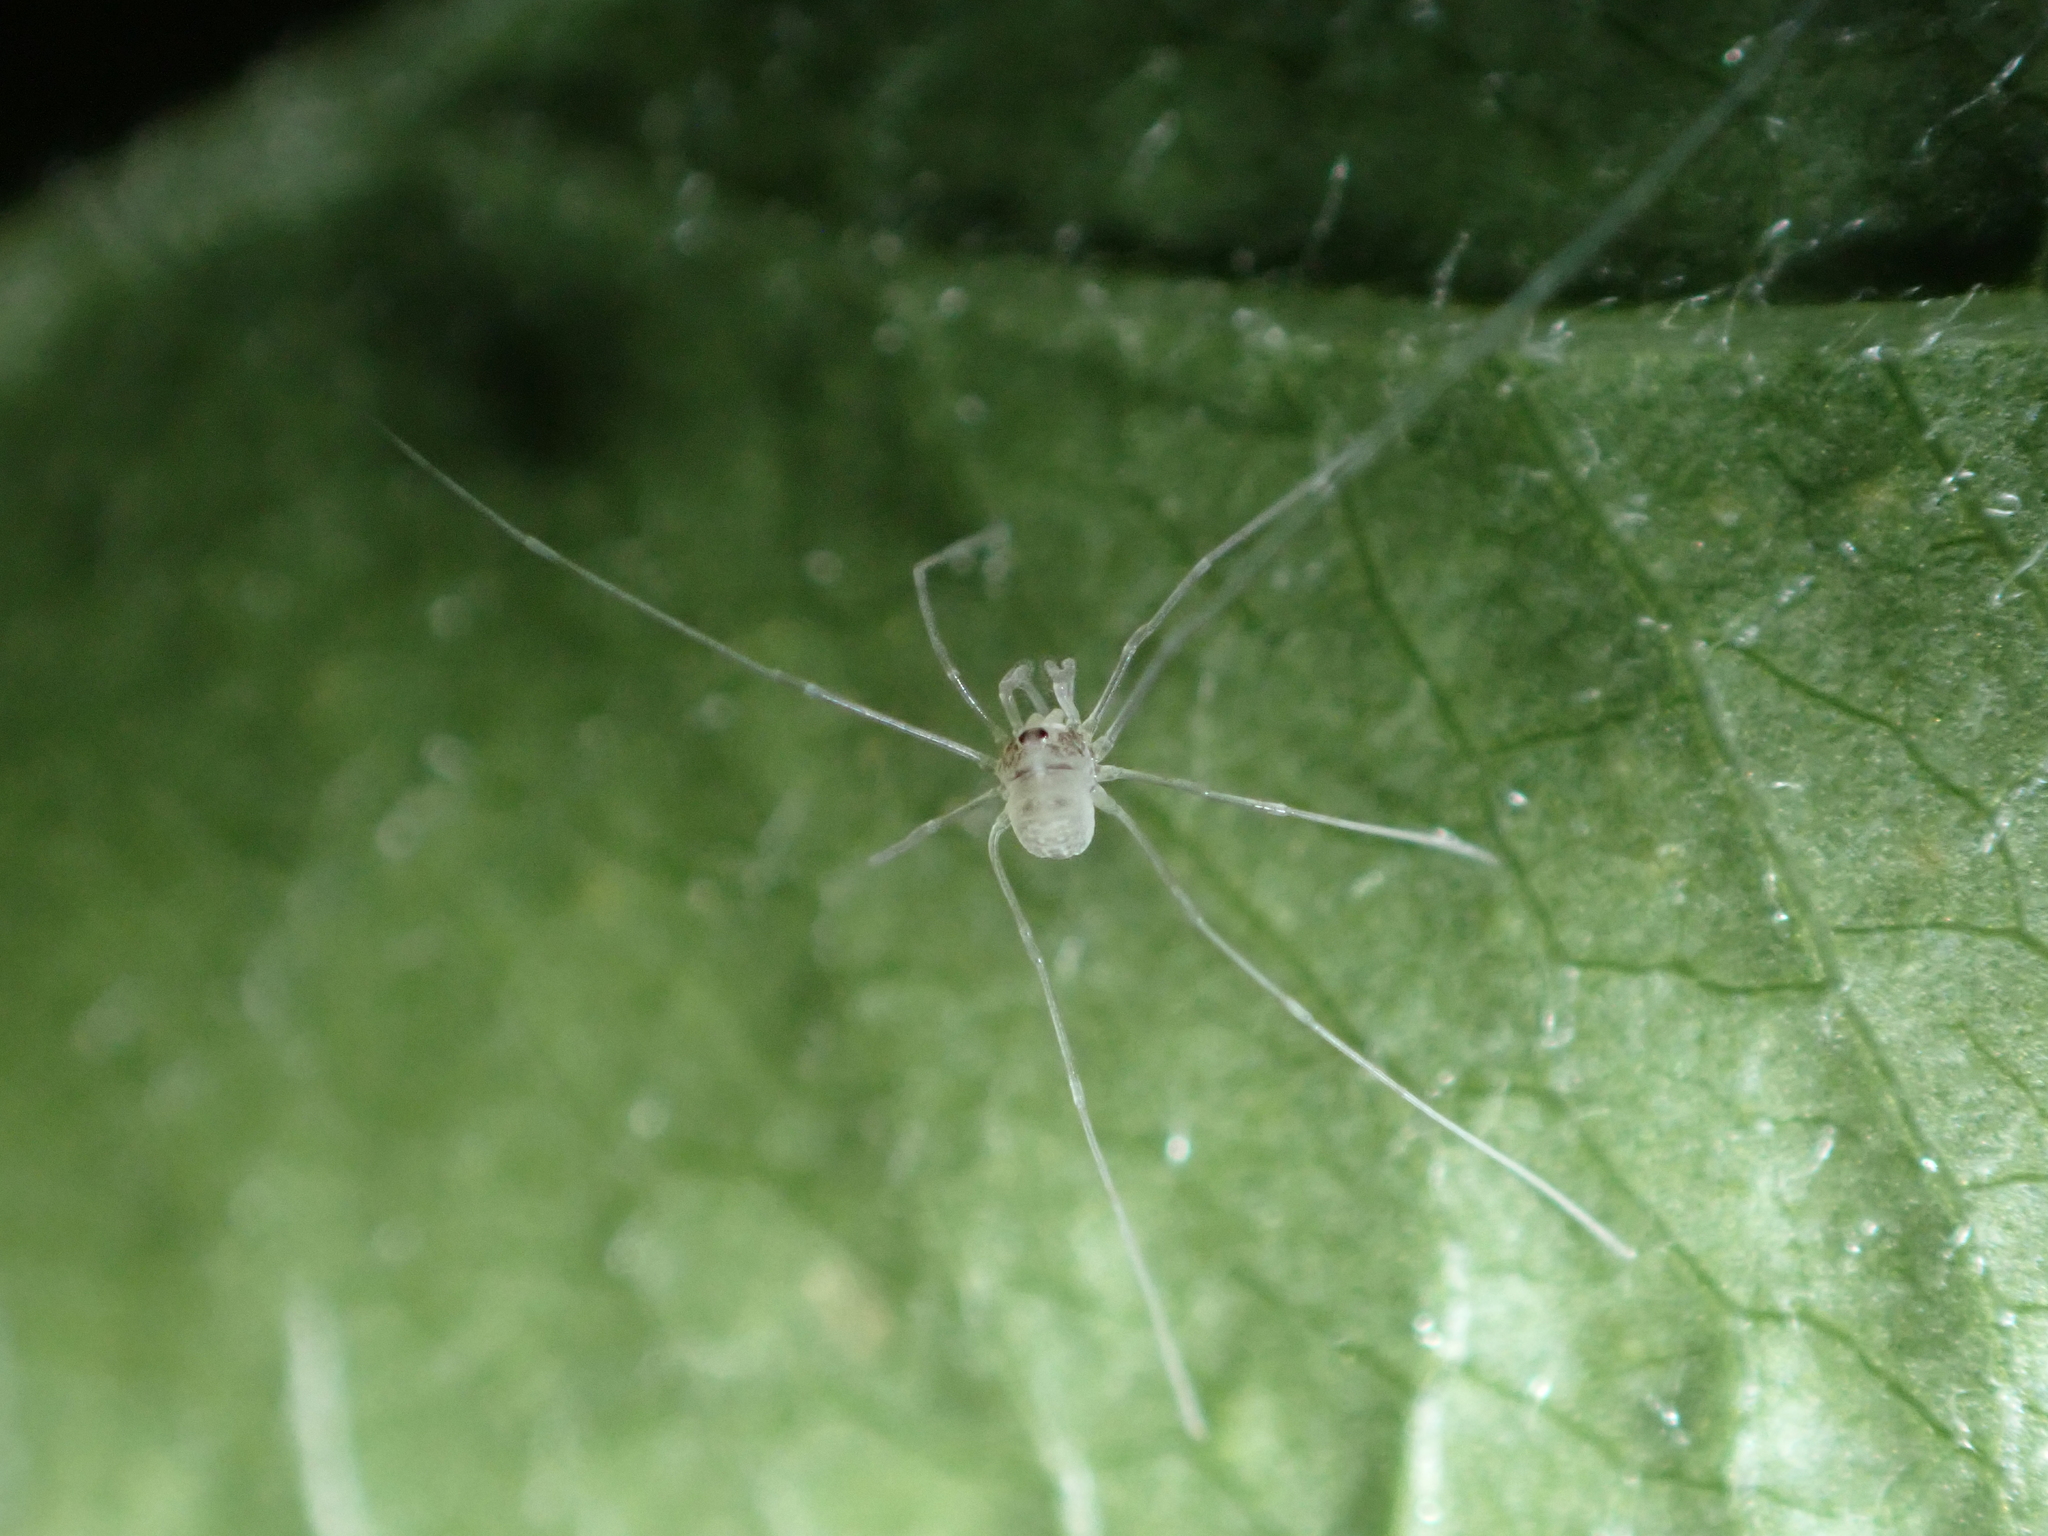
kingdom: Animalia
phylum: Arthropoda
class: Arachnida
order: Opiliones
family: Phalangiidae
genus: Dicranopalpus
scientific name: Dicranopalpus ramosus
